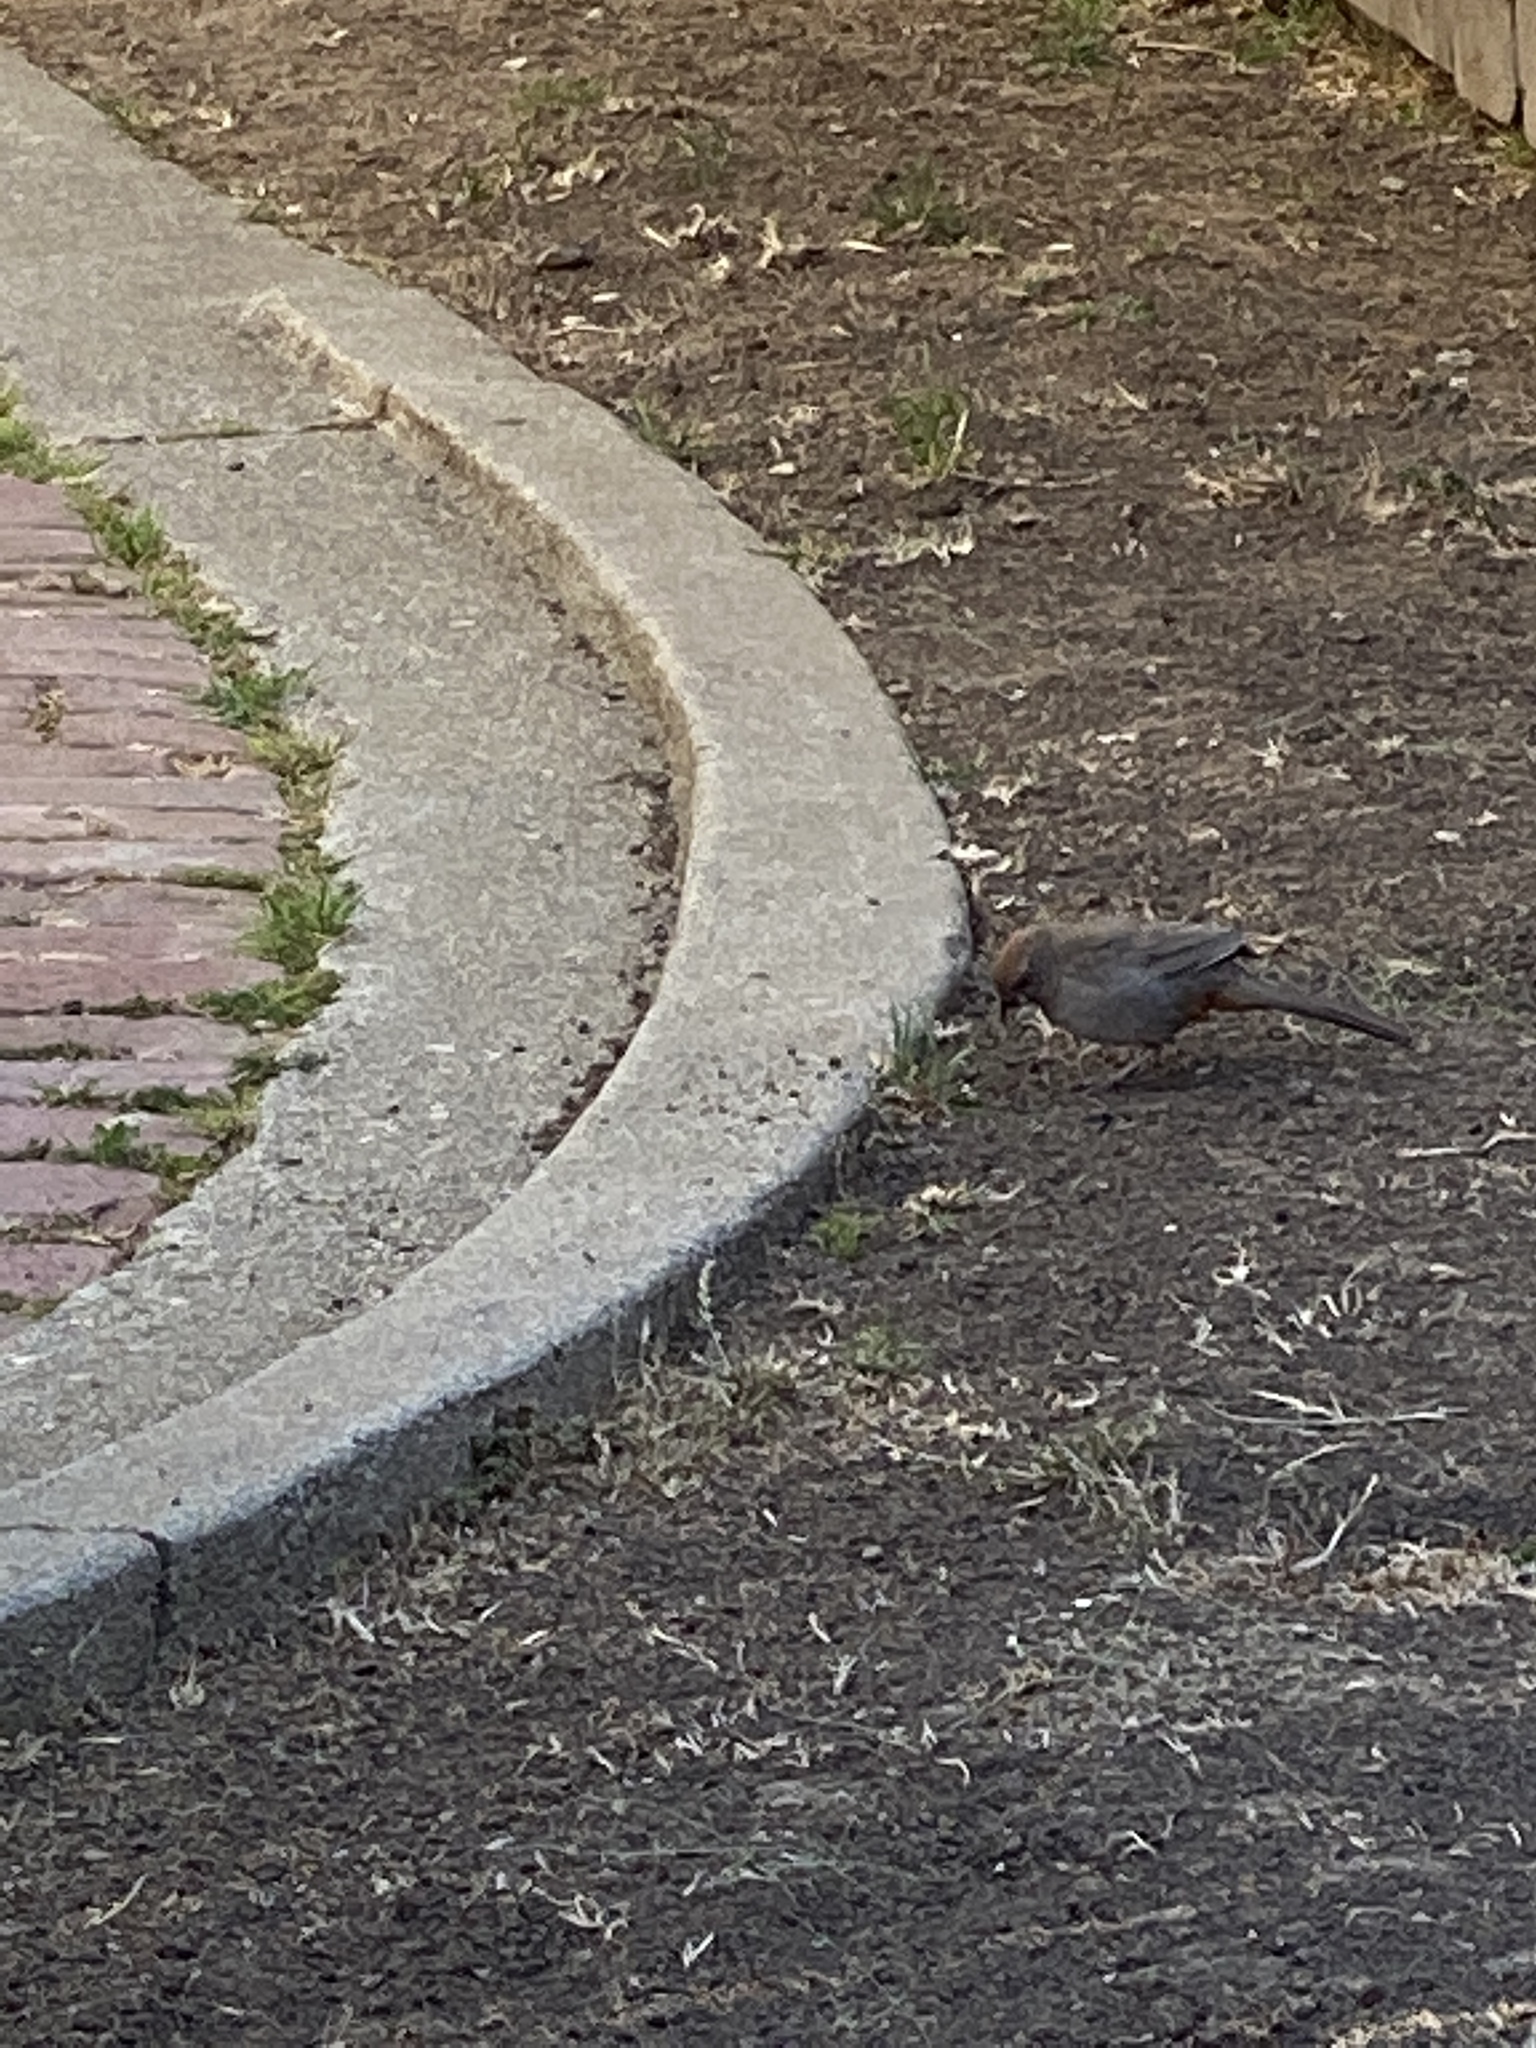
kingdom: Animalia
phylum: Chordata
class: Aves
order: Passeriformes
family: Passerellidae
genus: Melozone
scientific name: Melozone crissalis
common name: California towhee
